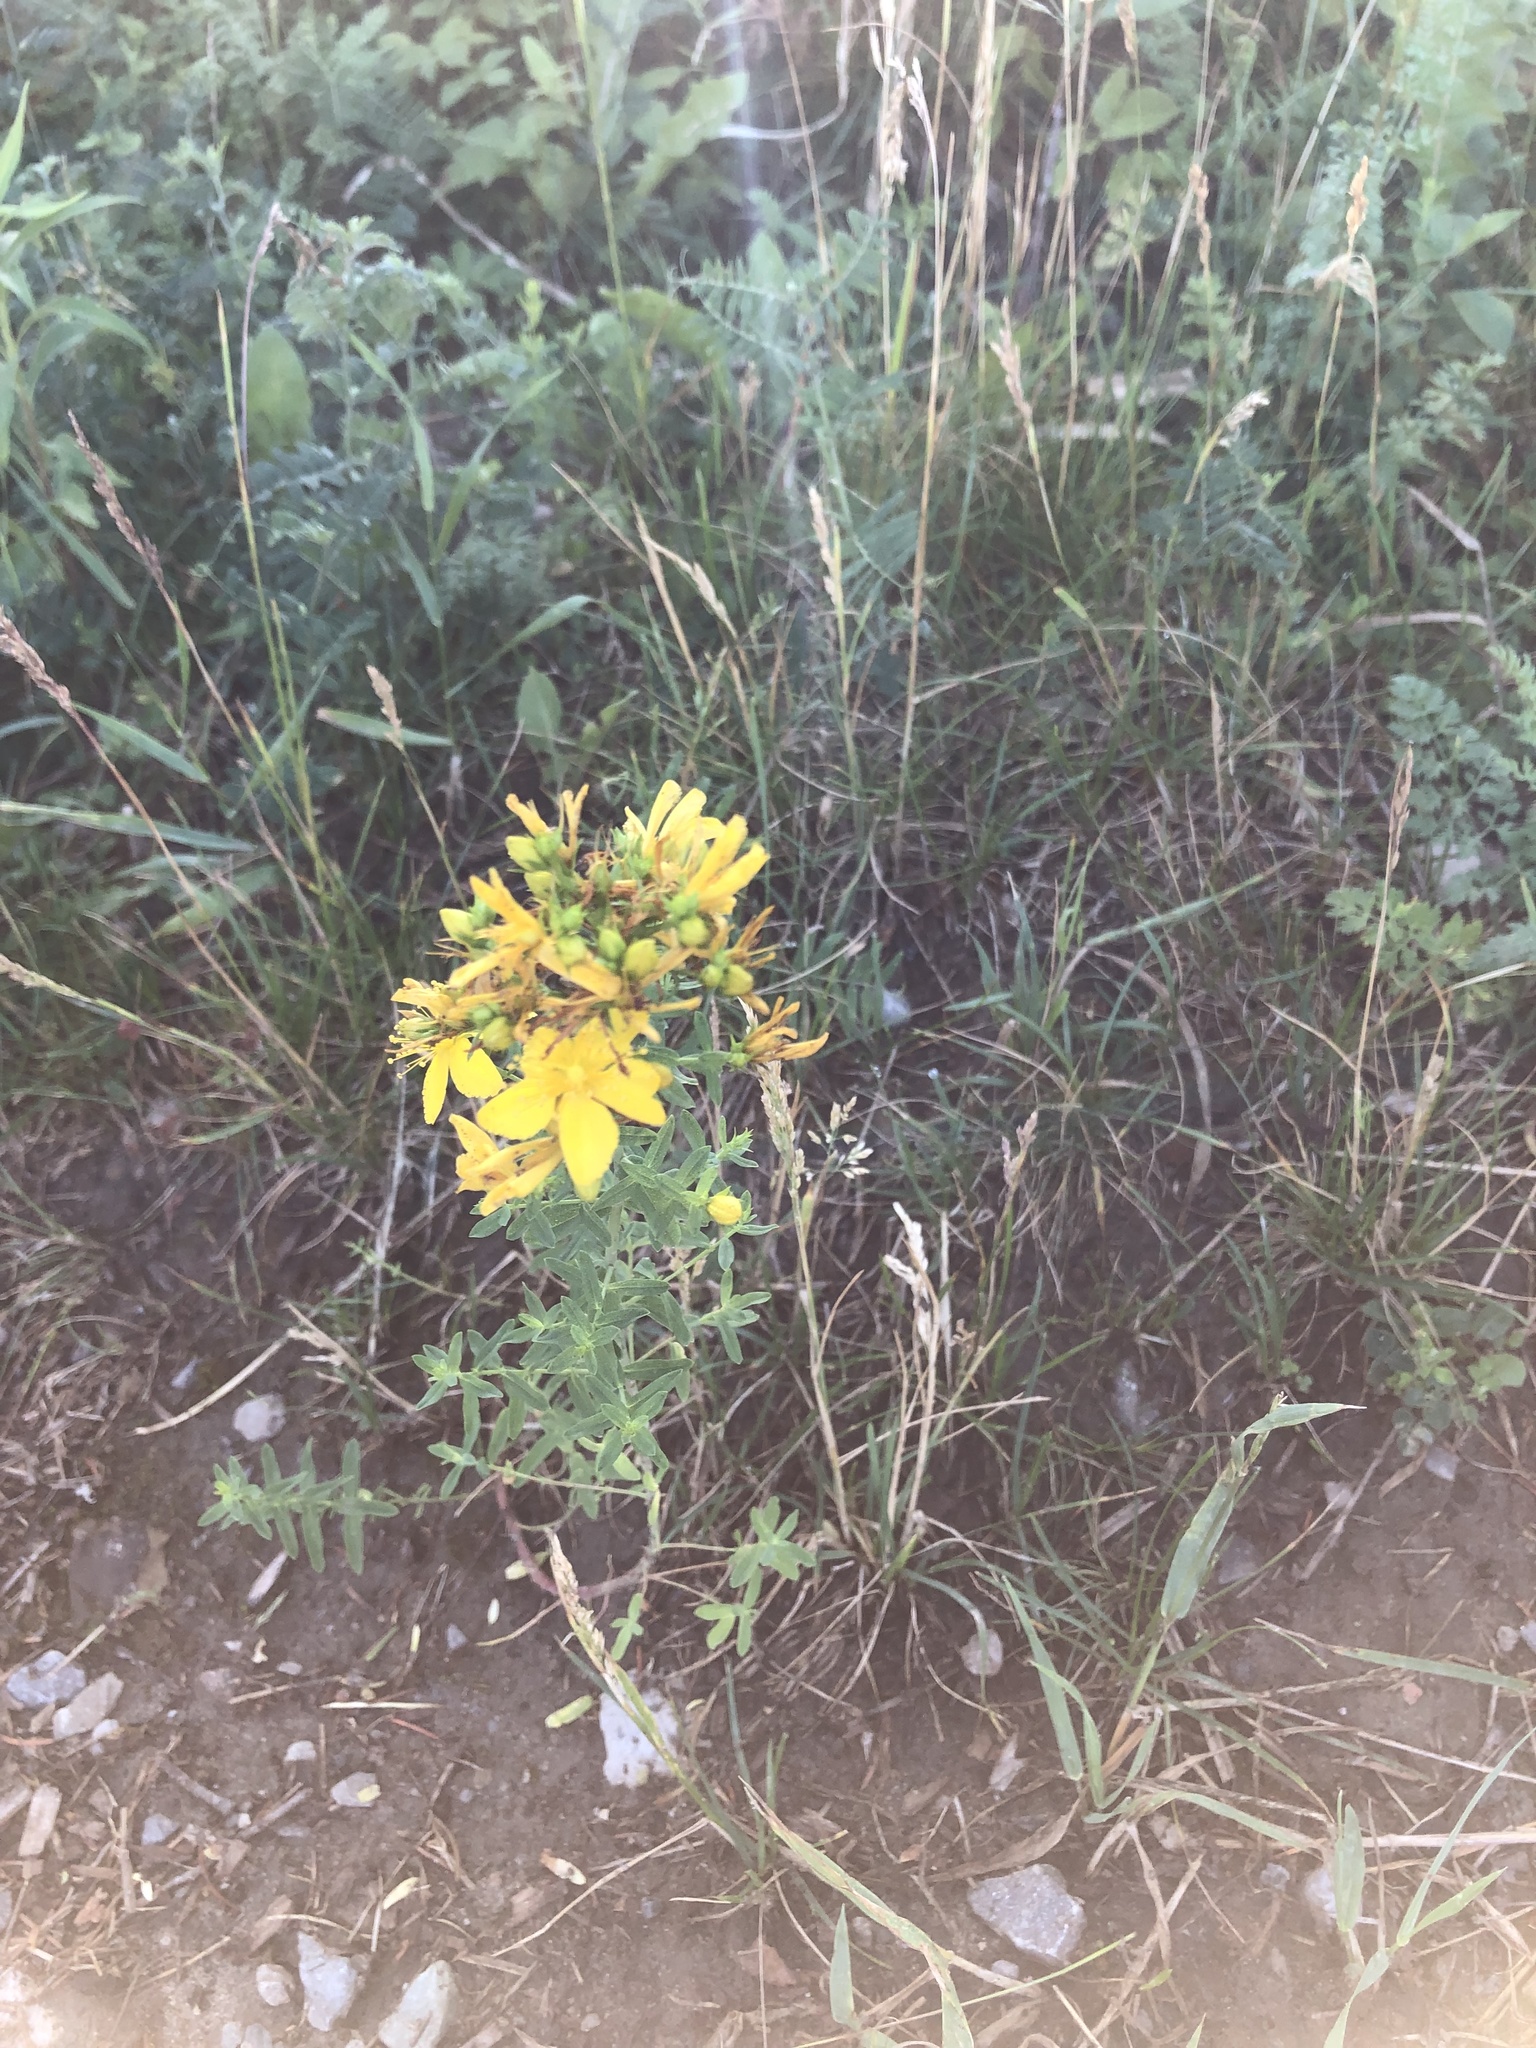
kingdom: Plantae
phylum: Tracheophyta
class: Magnoliopsida
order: Malpighiales
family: Hypericaceae
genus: Hypericum
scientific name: Hypericum perforatum
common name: Common st. johnswort
